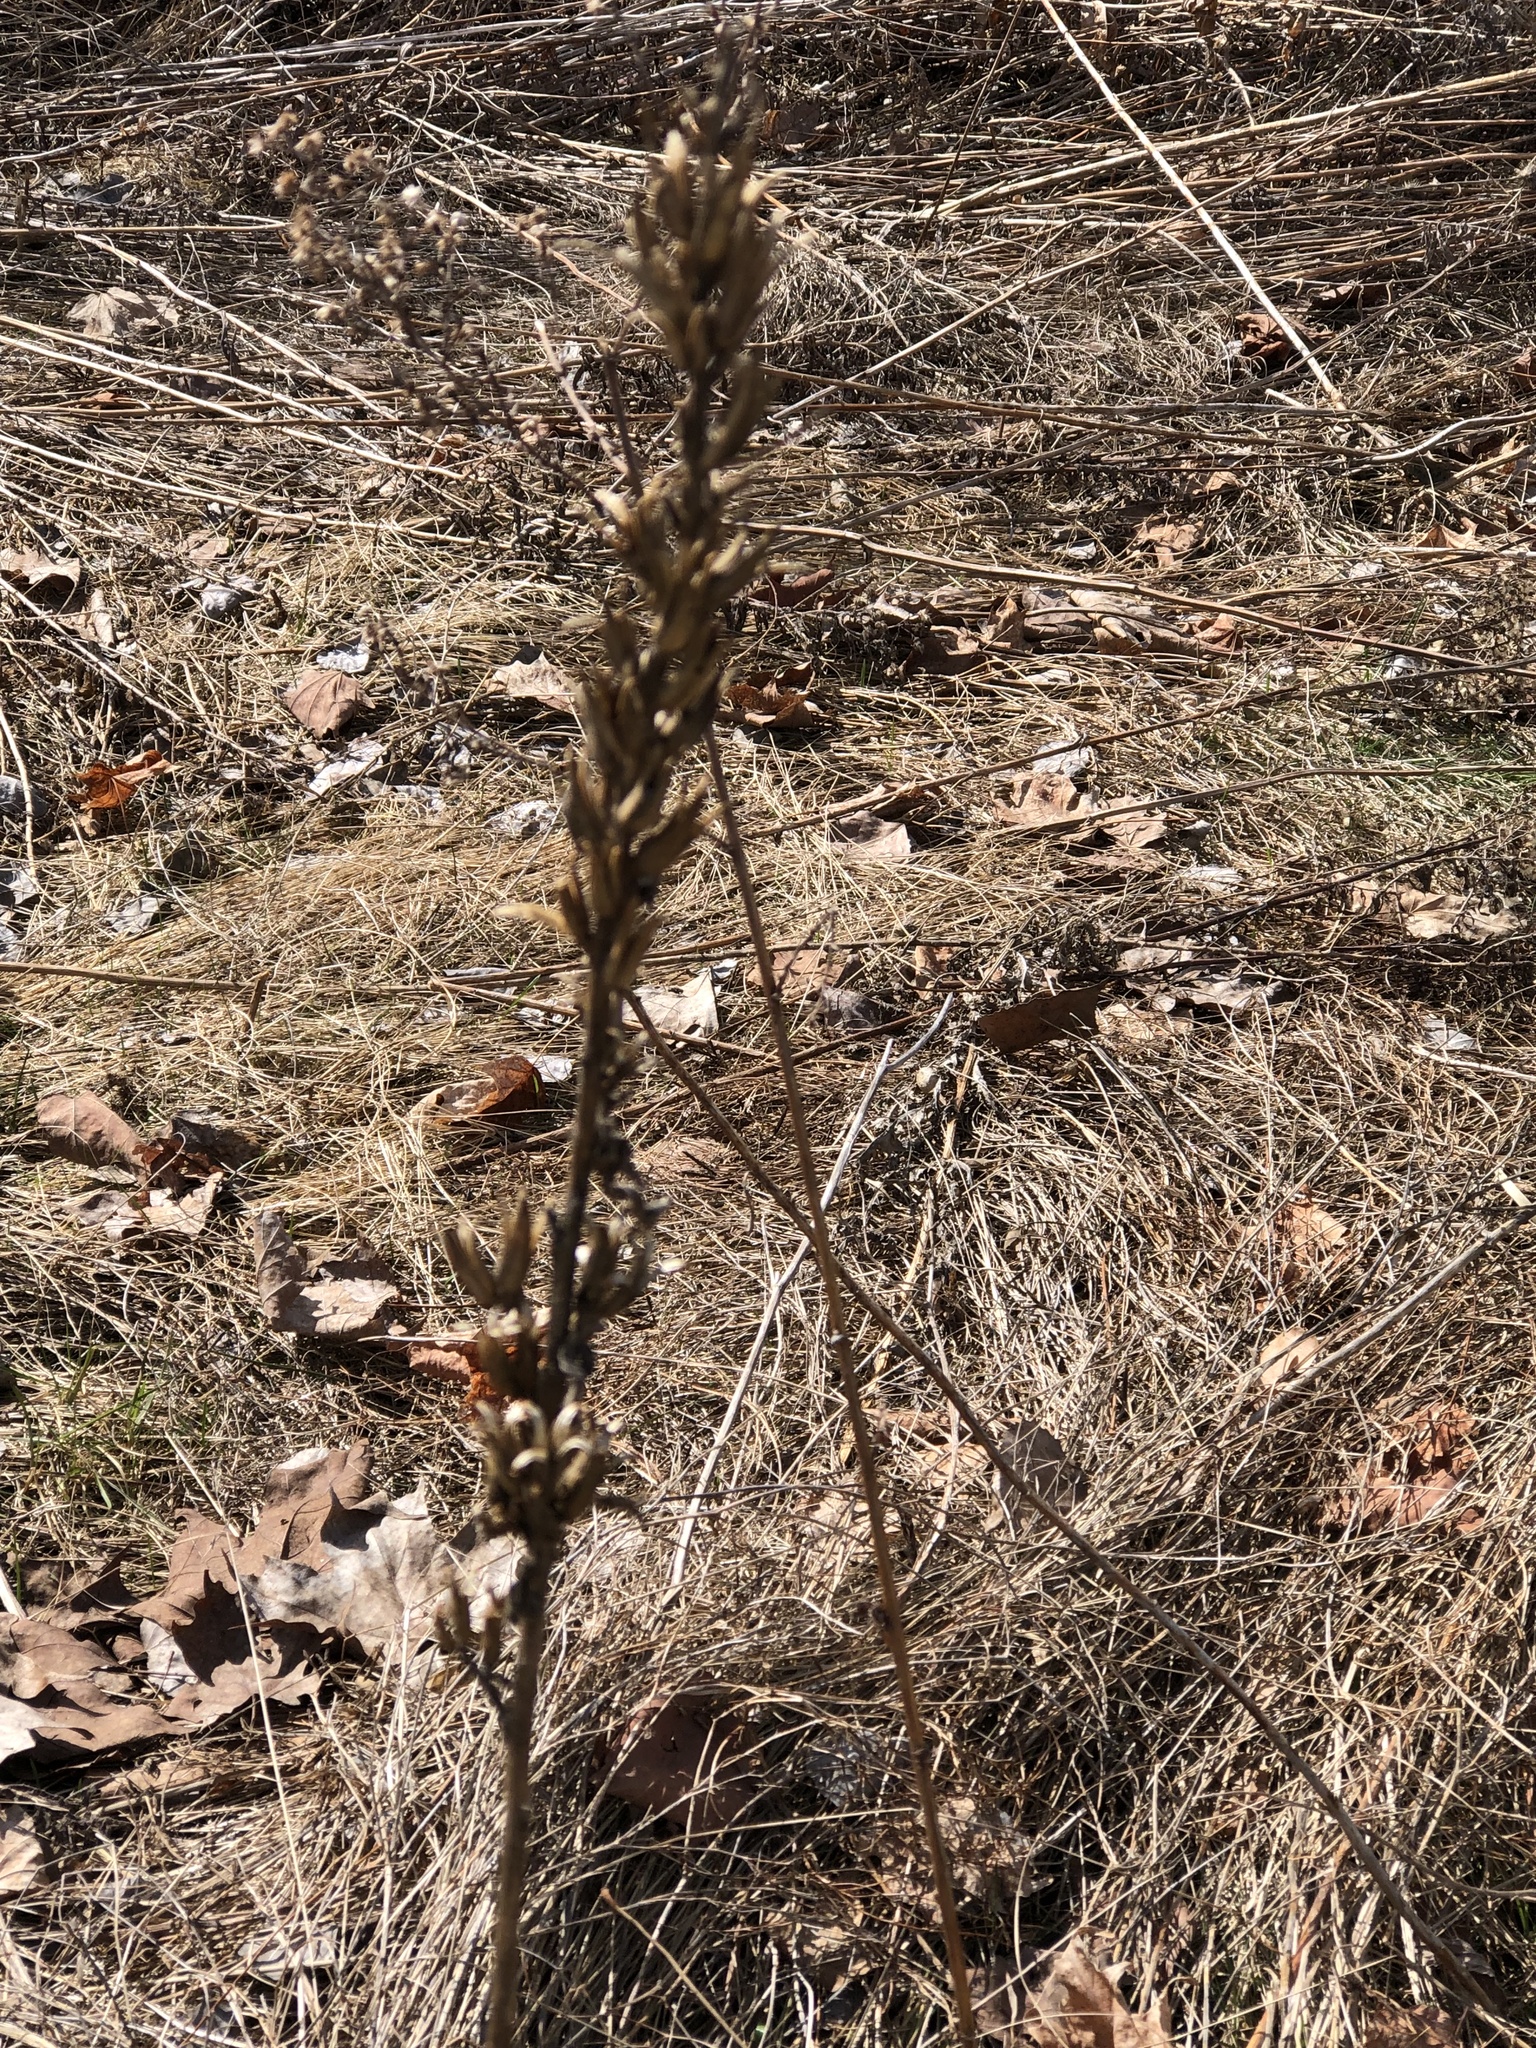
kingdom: Plantae
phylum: Tracheophyta
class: Magnoliopsida
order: Myrtales
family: Onagraceae
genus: Oenothera
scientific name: Oenothera biennis
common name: Common evening-primrose
